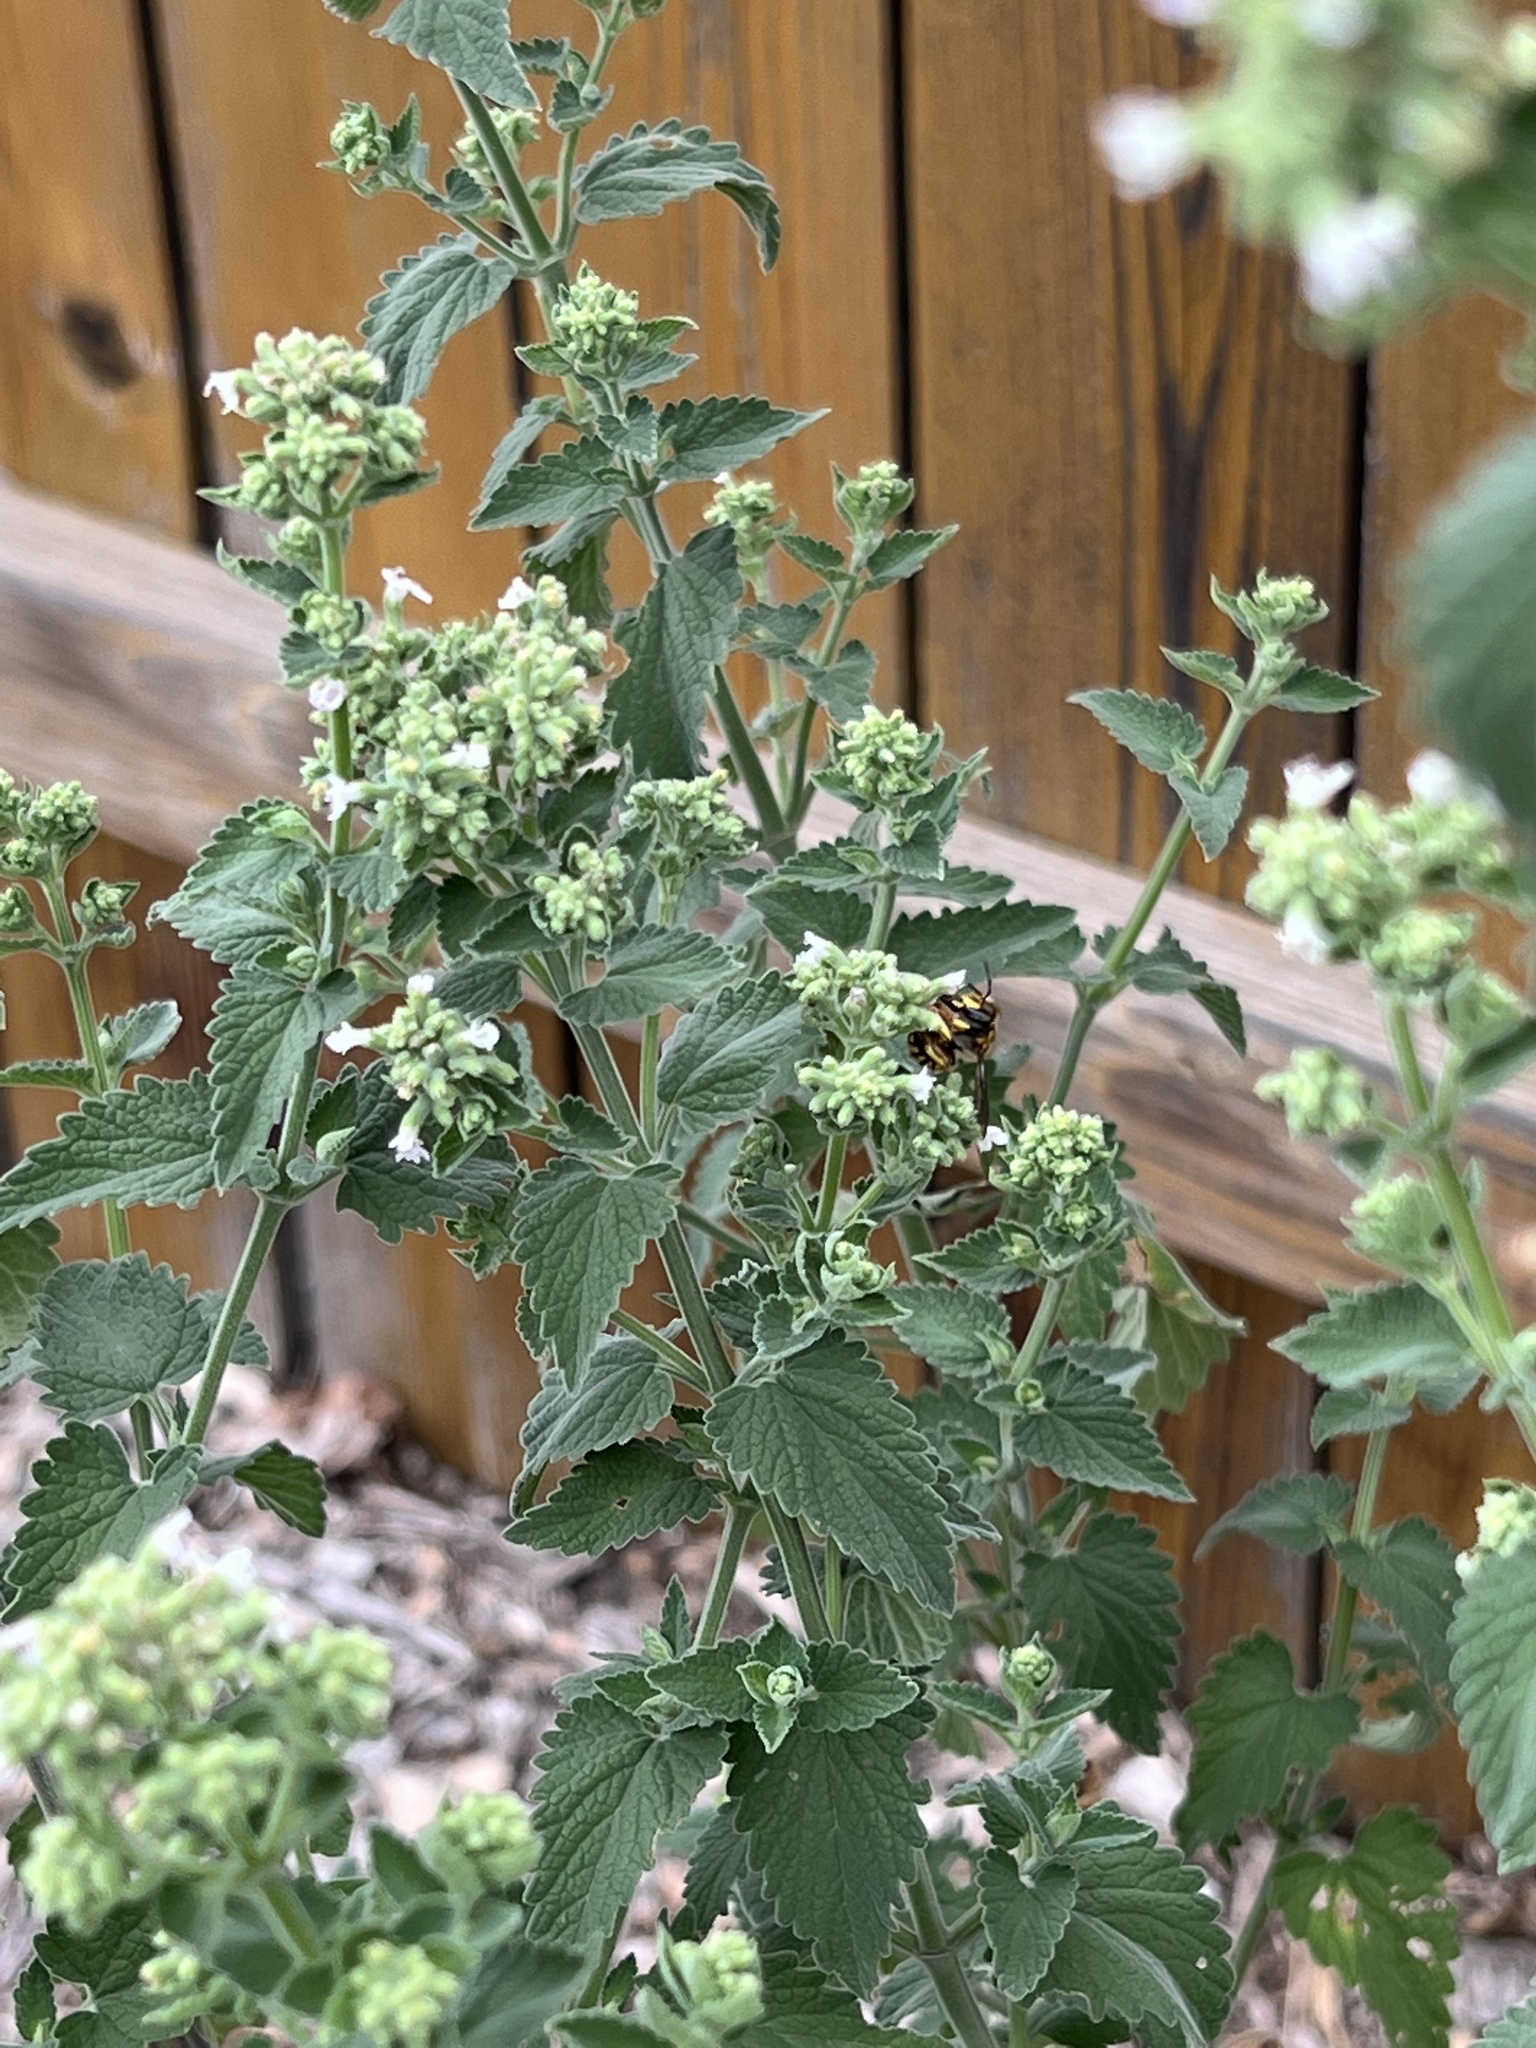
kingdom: Animalia
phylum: Arthropoda
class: Insecta
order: Hymenoptera
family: Megachilidae
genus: Anthidium
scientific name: Anthidium manicatum
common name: Wool carder bee
